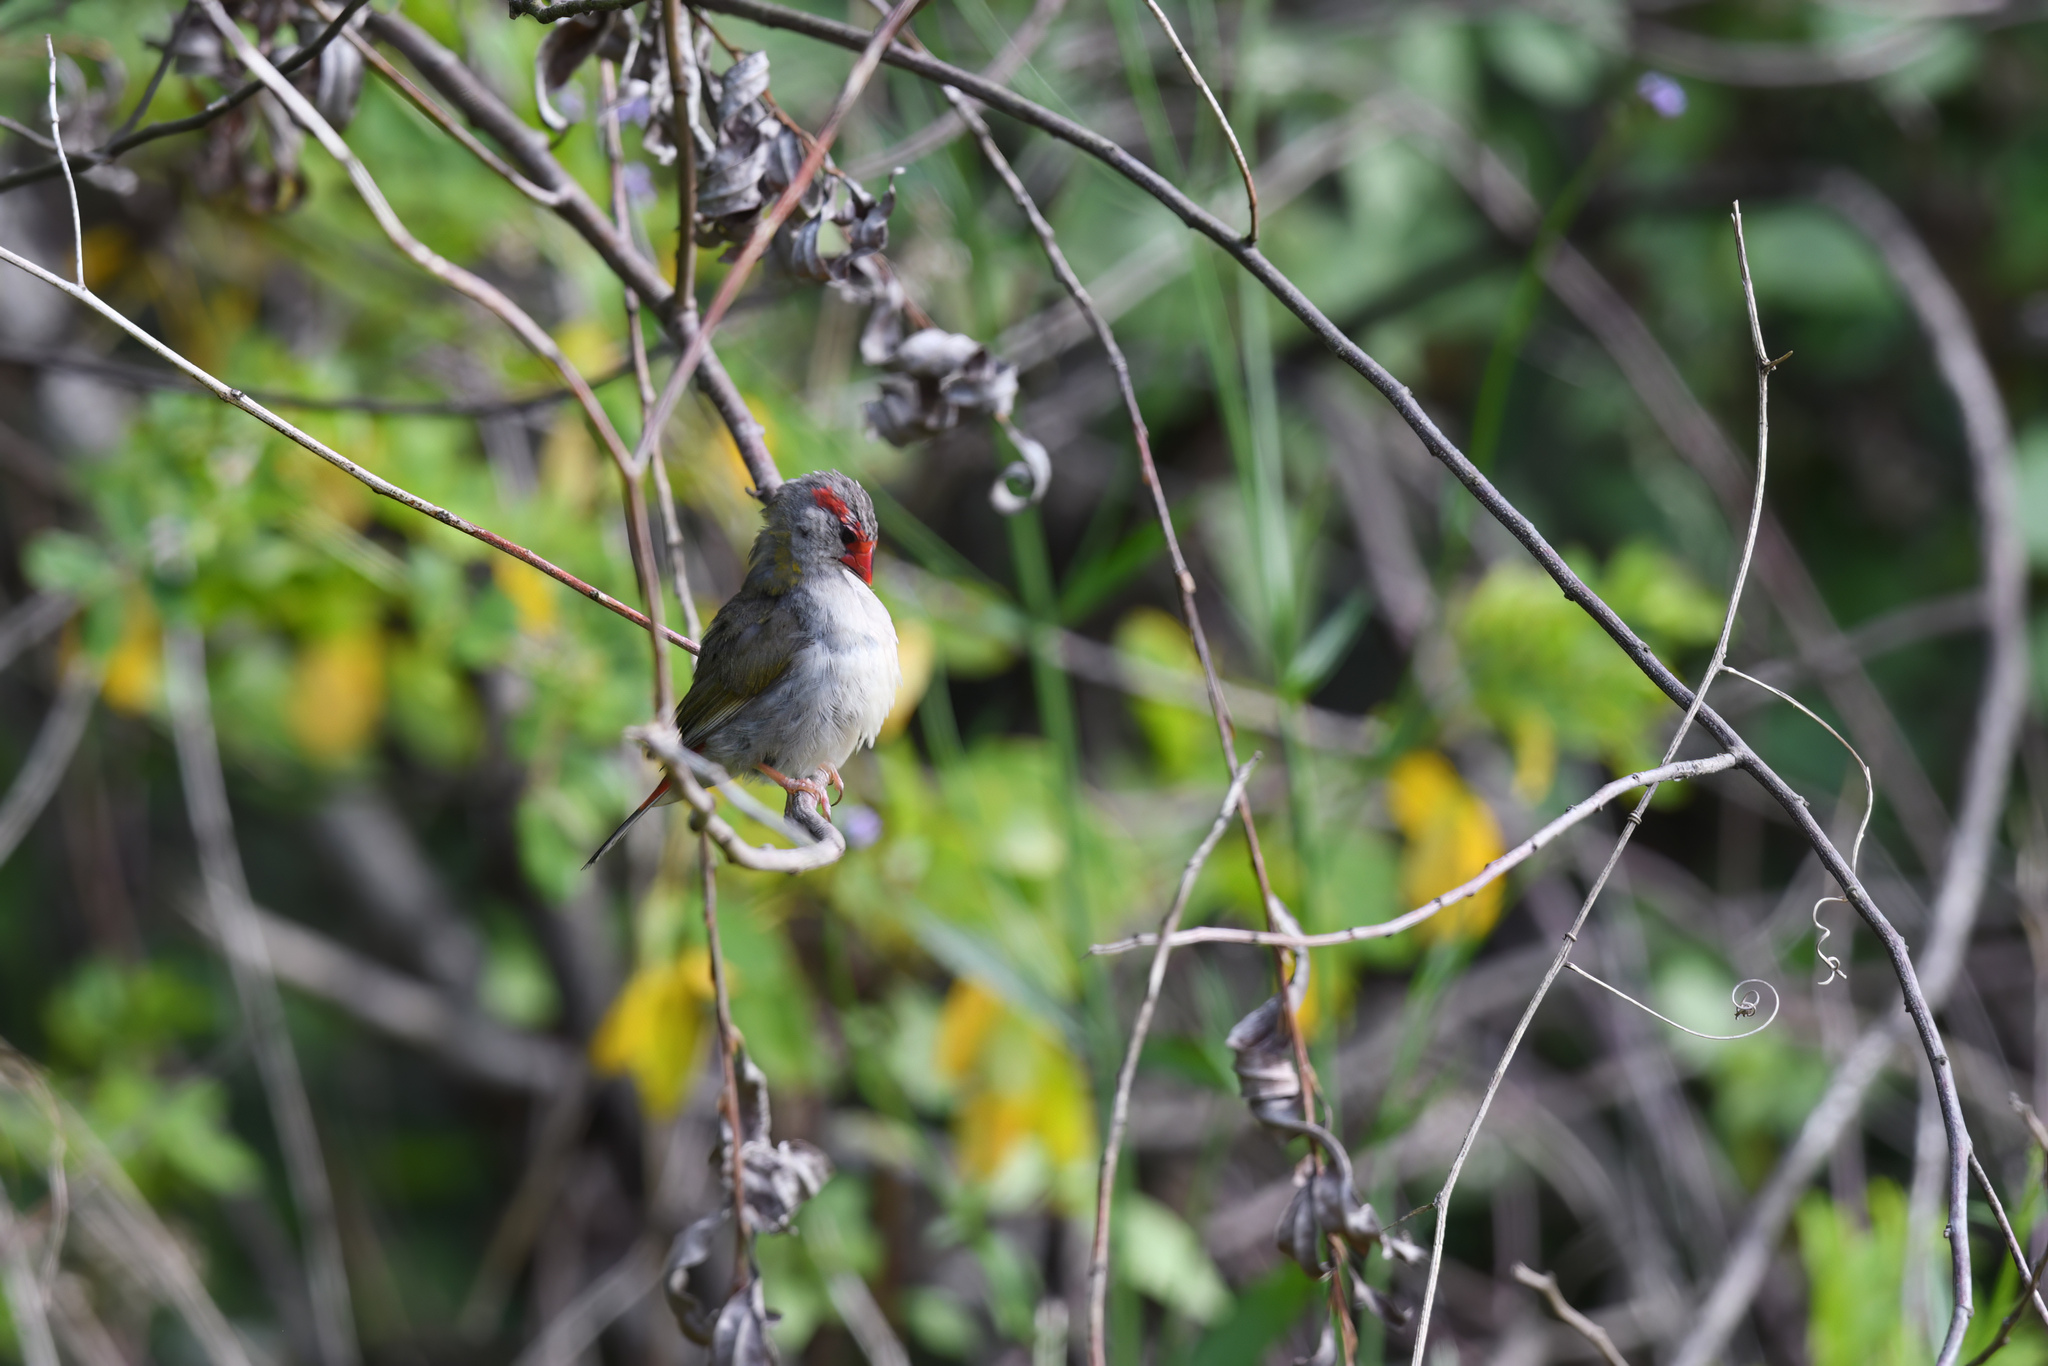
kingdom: Animalia
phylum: Chordata
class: Aves
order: Passeriformes
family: Estrildidae
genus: Neochmia
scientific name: Neochmia temporalis
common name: Red-browed finch
